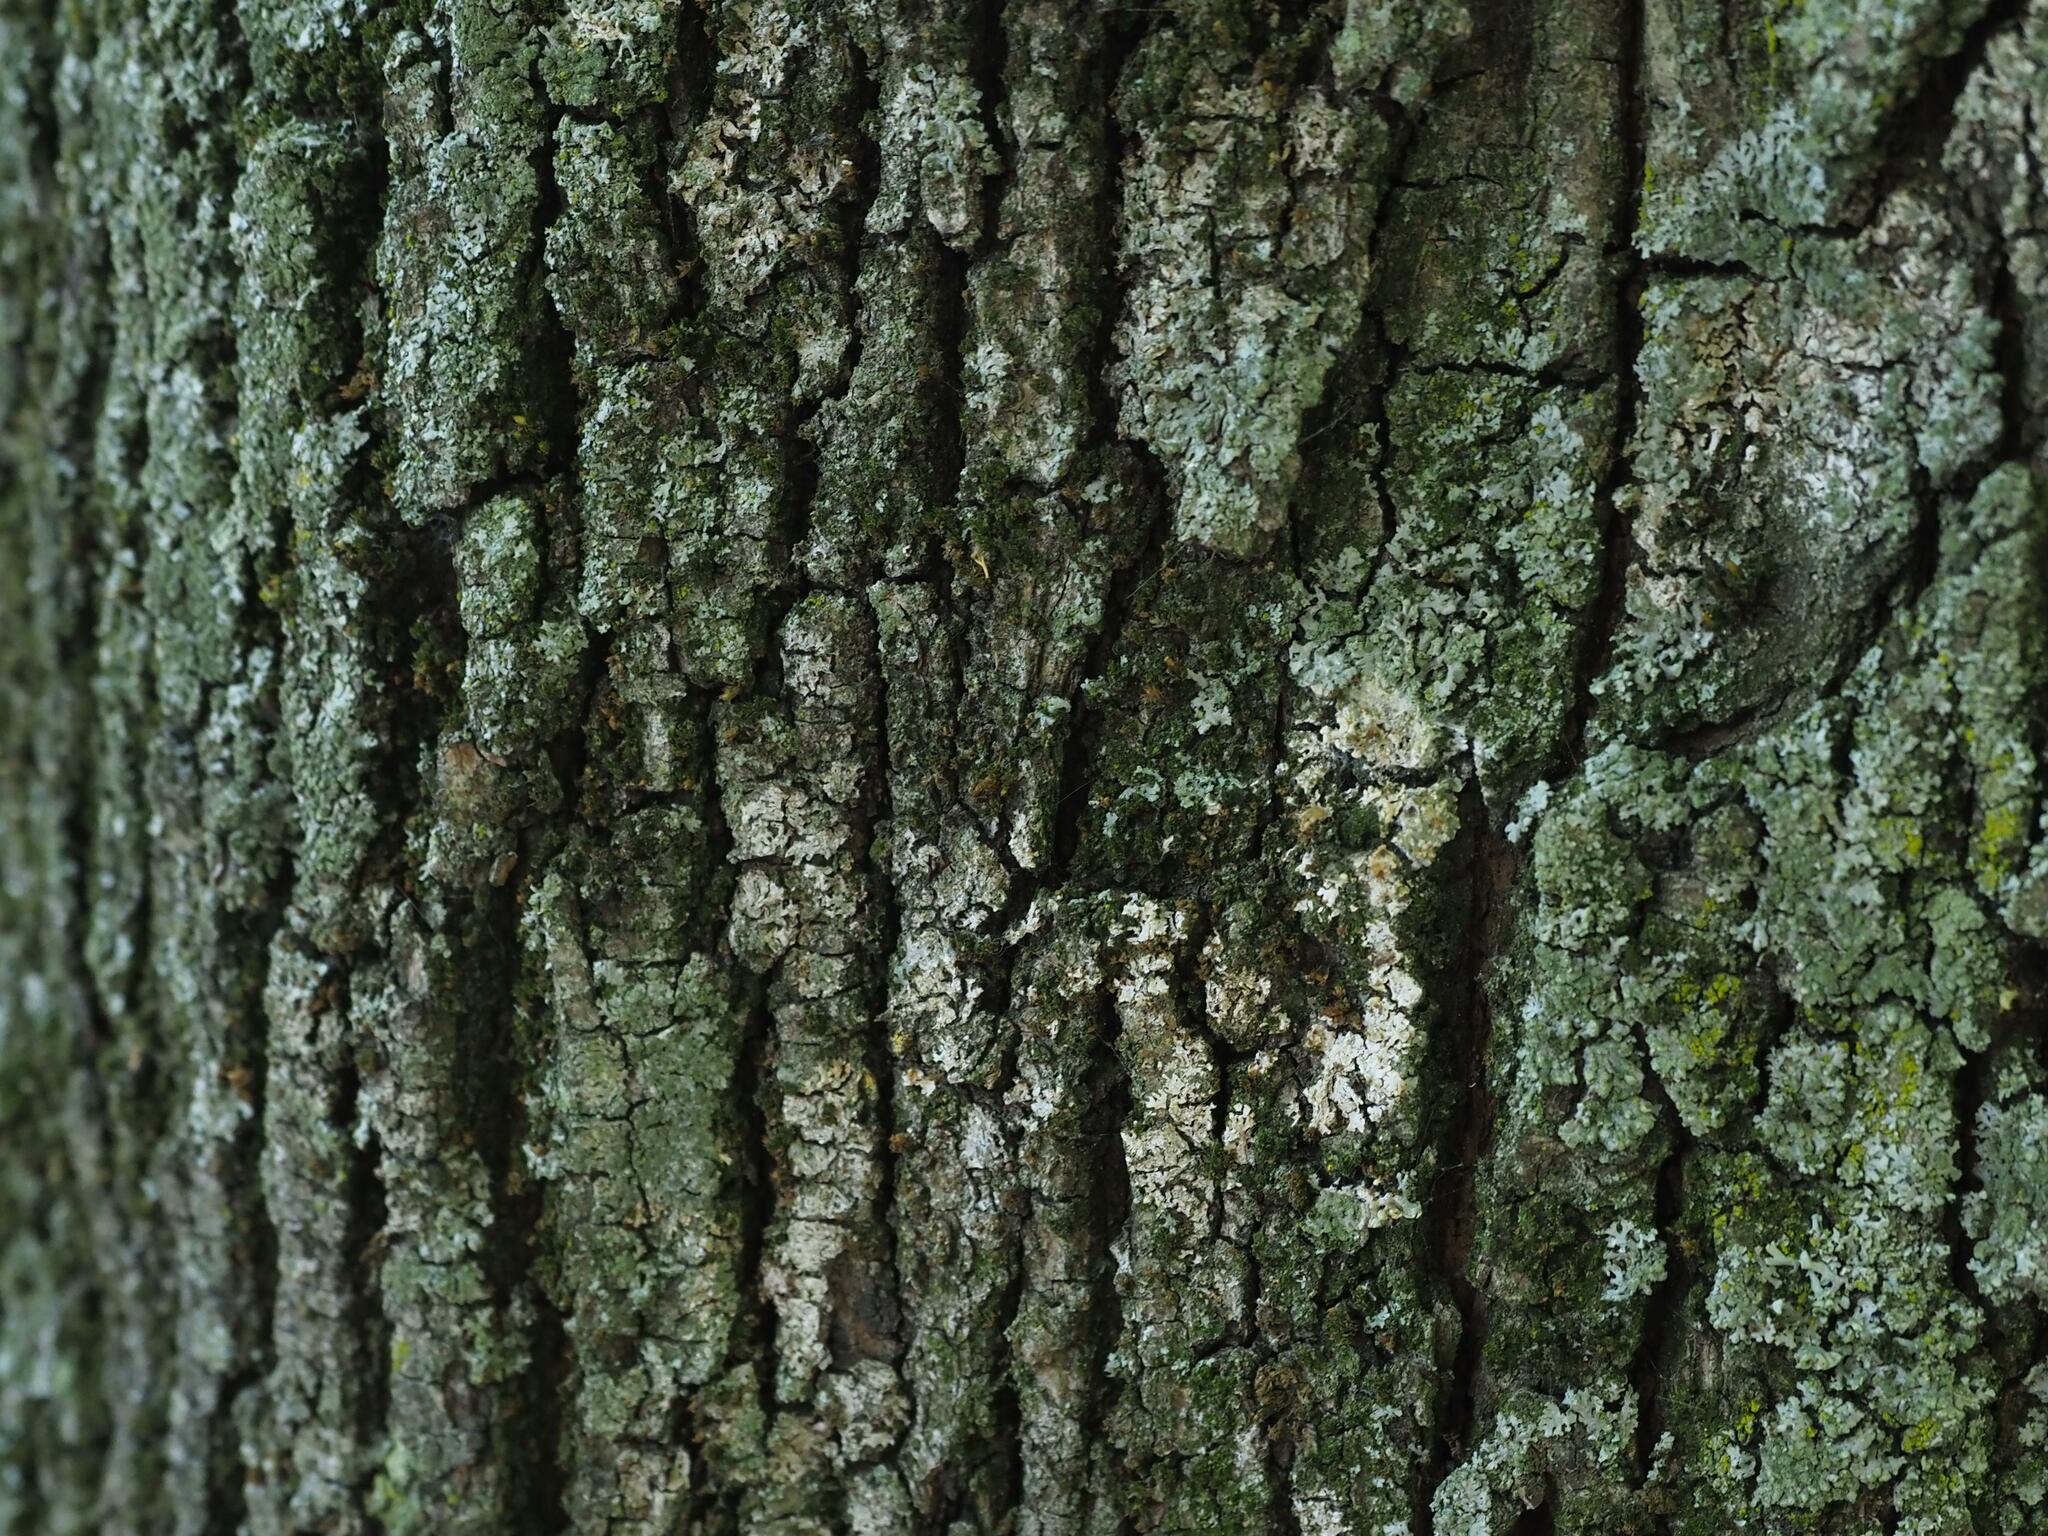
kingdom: Fungi
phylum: Basidiomycota
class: Agaricomycetes
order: Atheliales
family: Atheliaceae
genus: Athelia
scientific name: Athelia arachnoidea
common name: Candelabra duster
